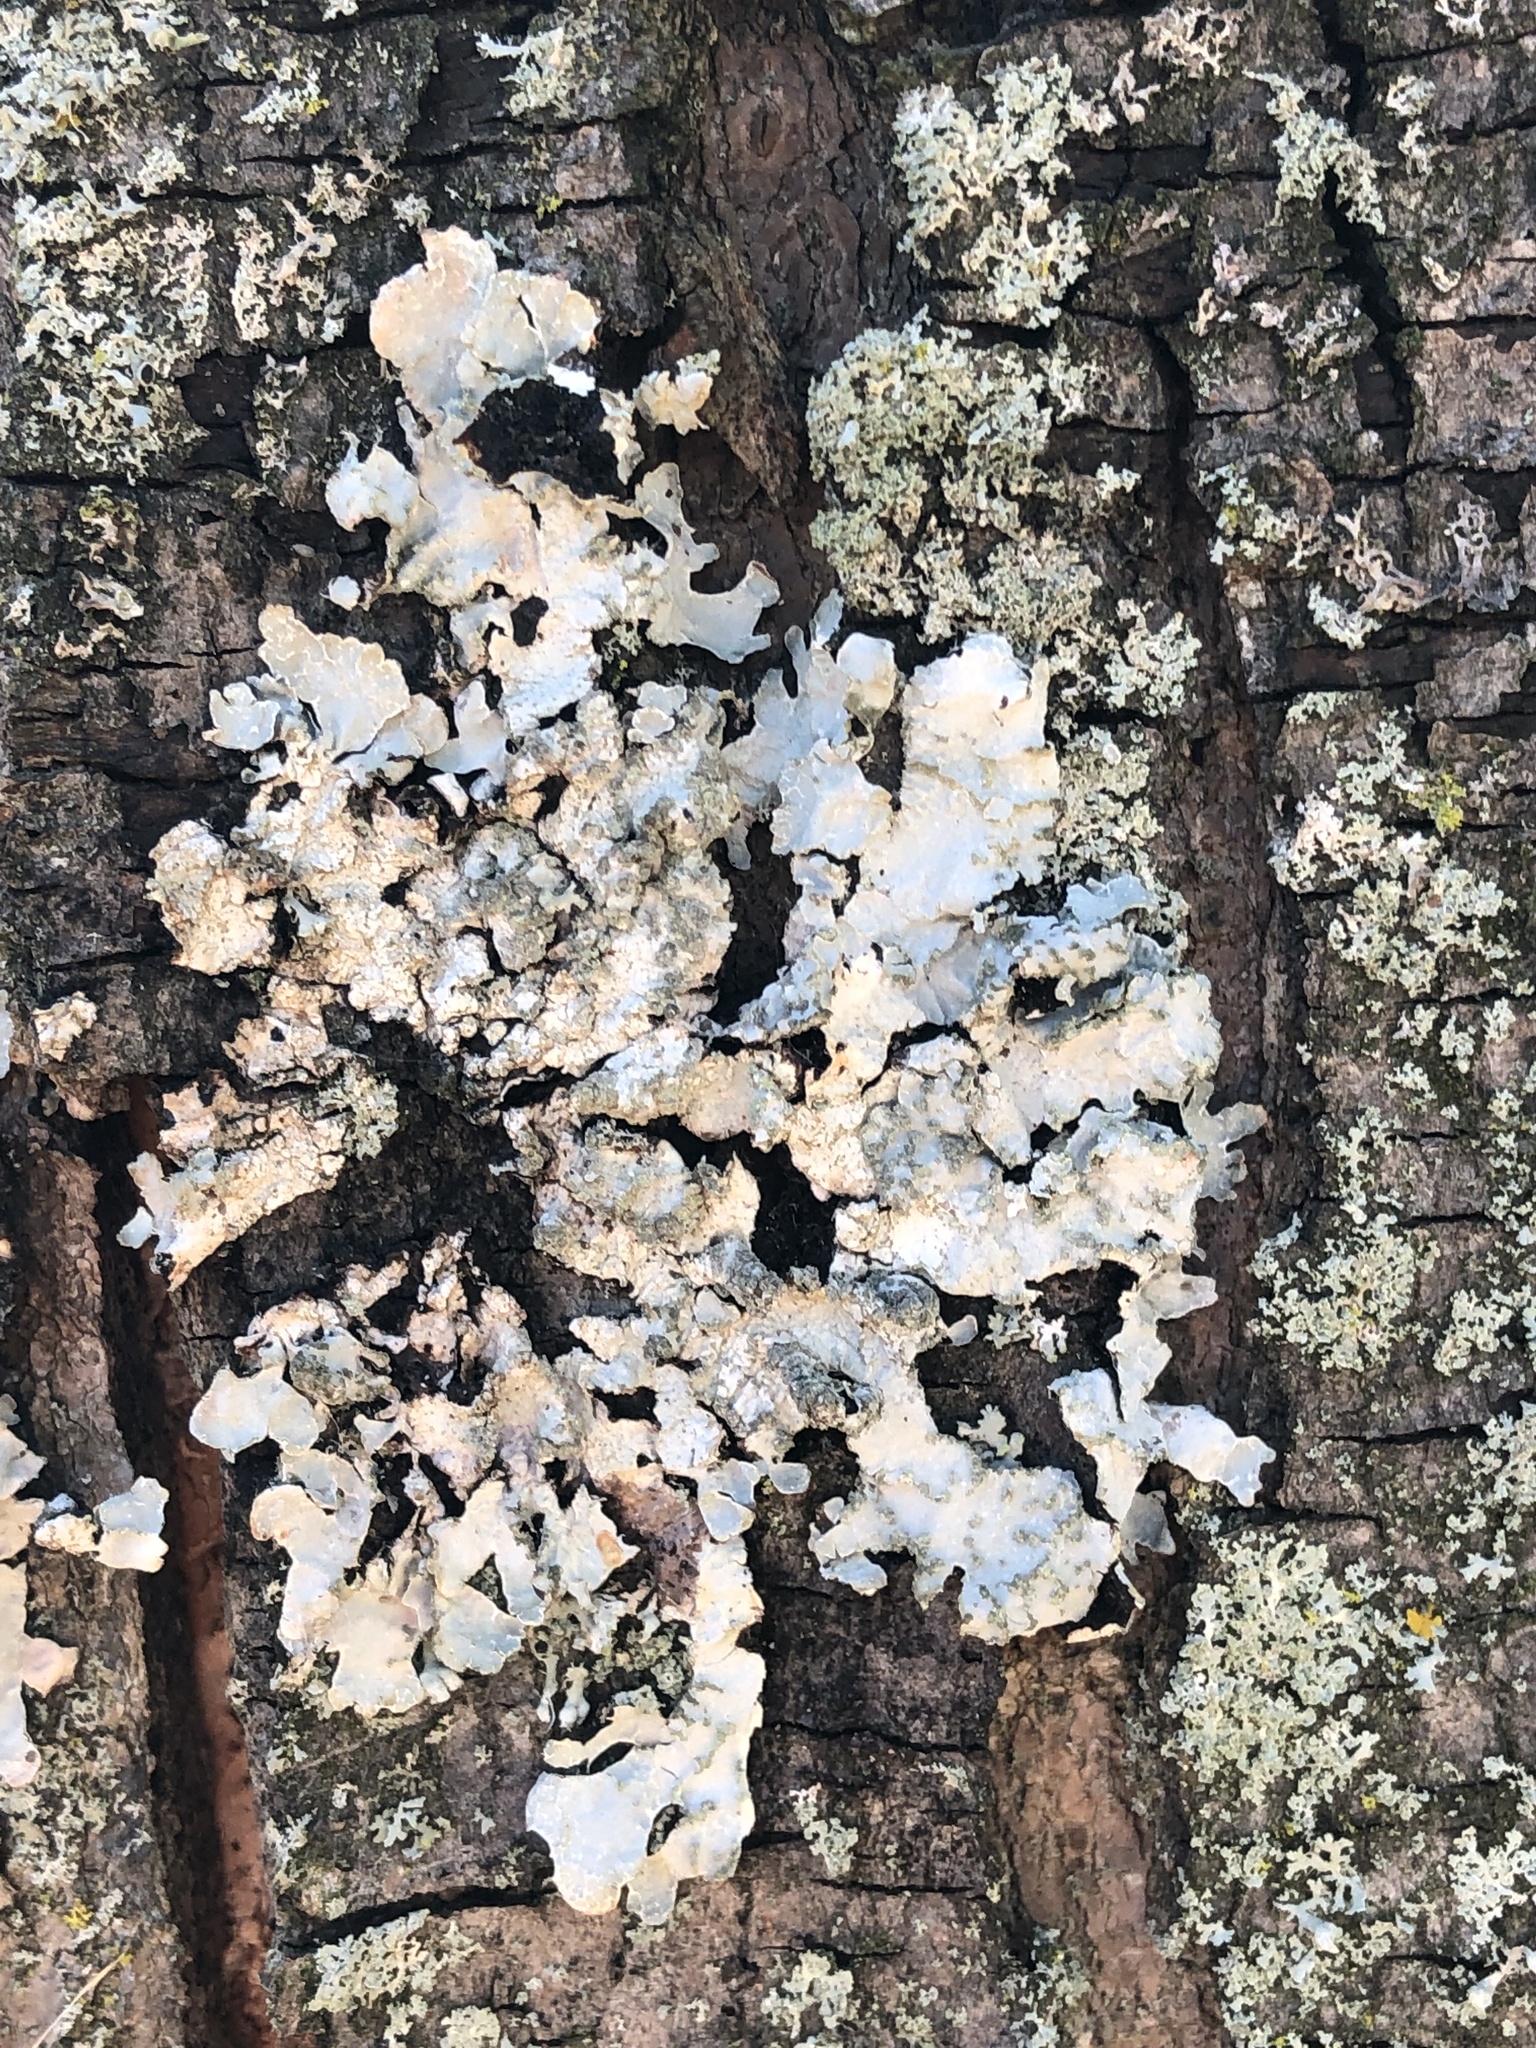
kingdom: Fungi
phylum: Ascomycota
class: Lecanoromycetes
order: Lecanorales
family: Parmeliaceae
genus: Parmelia
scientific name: Parmelia sulcata
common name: Netted shield lichen
